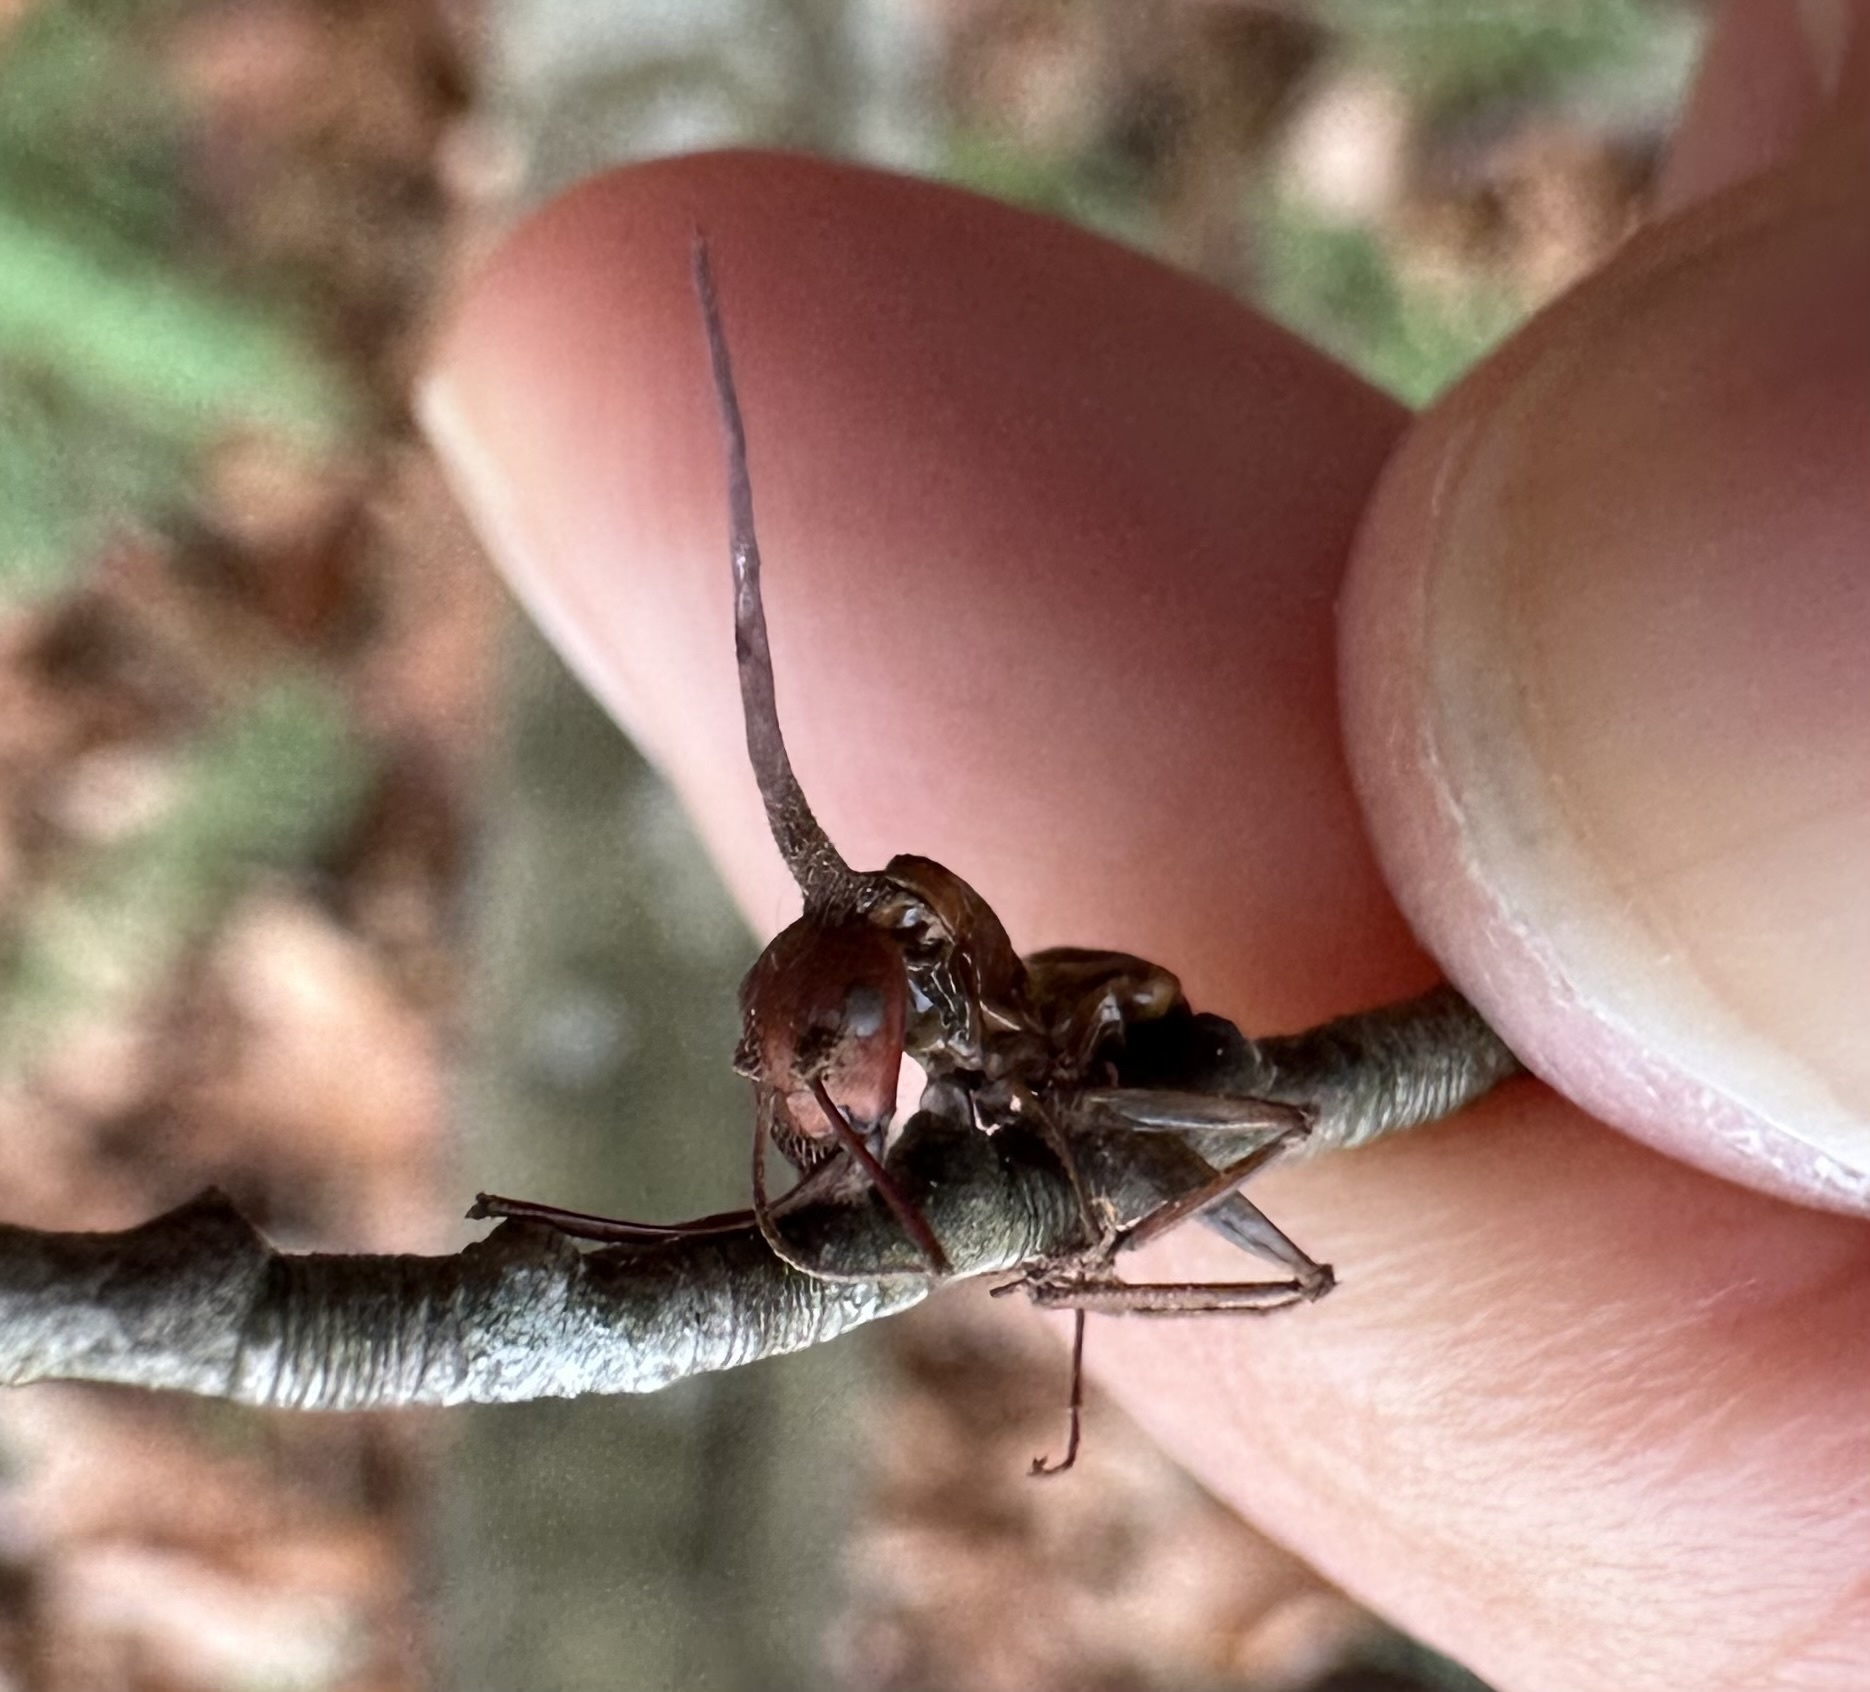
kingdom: Fungi
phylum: Ascomycota
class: Sordariomycetes
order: Hypocreales
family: Ophiocordycipitaceae
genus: Ophiocordyceps
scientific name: Ophiocordyceps kimflemingiae
